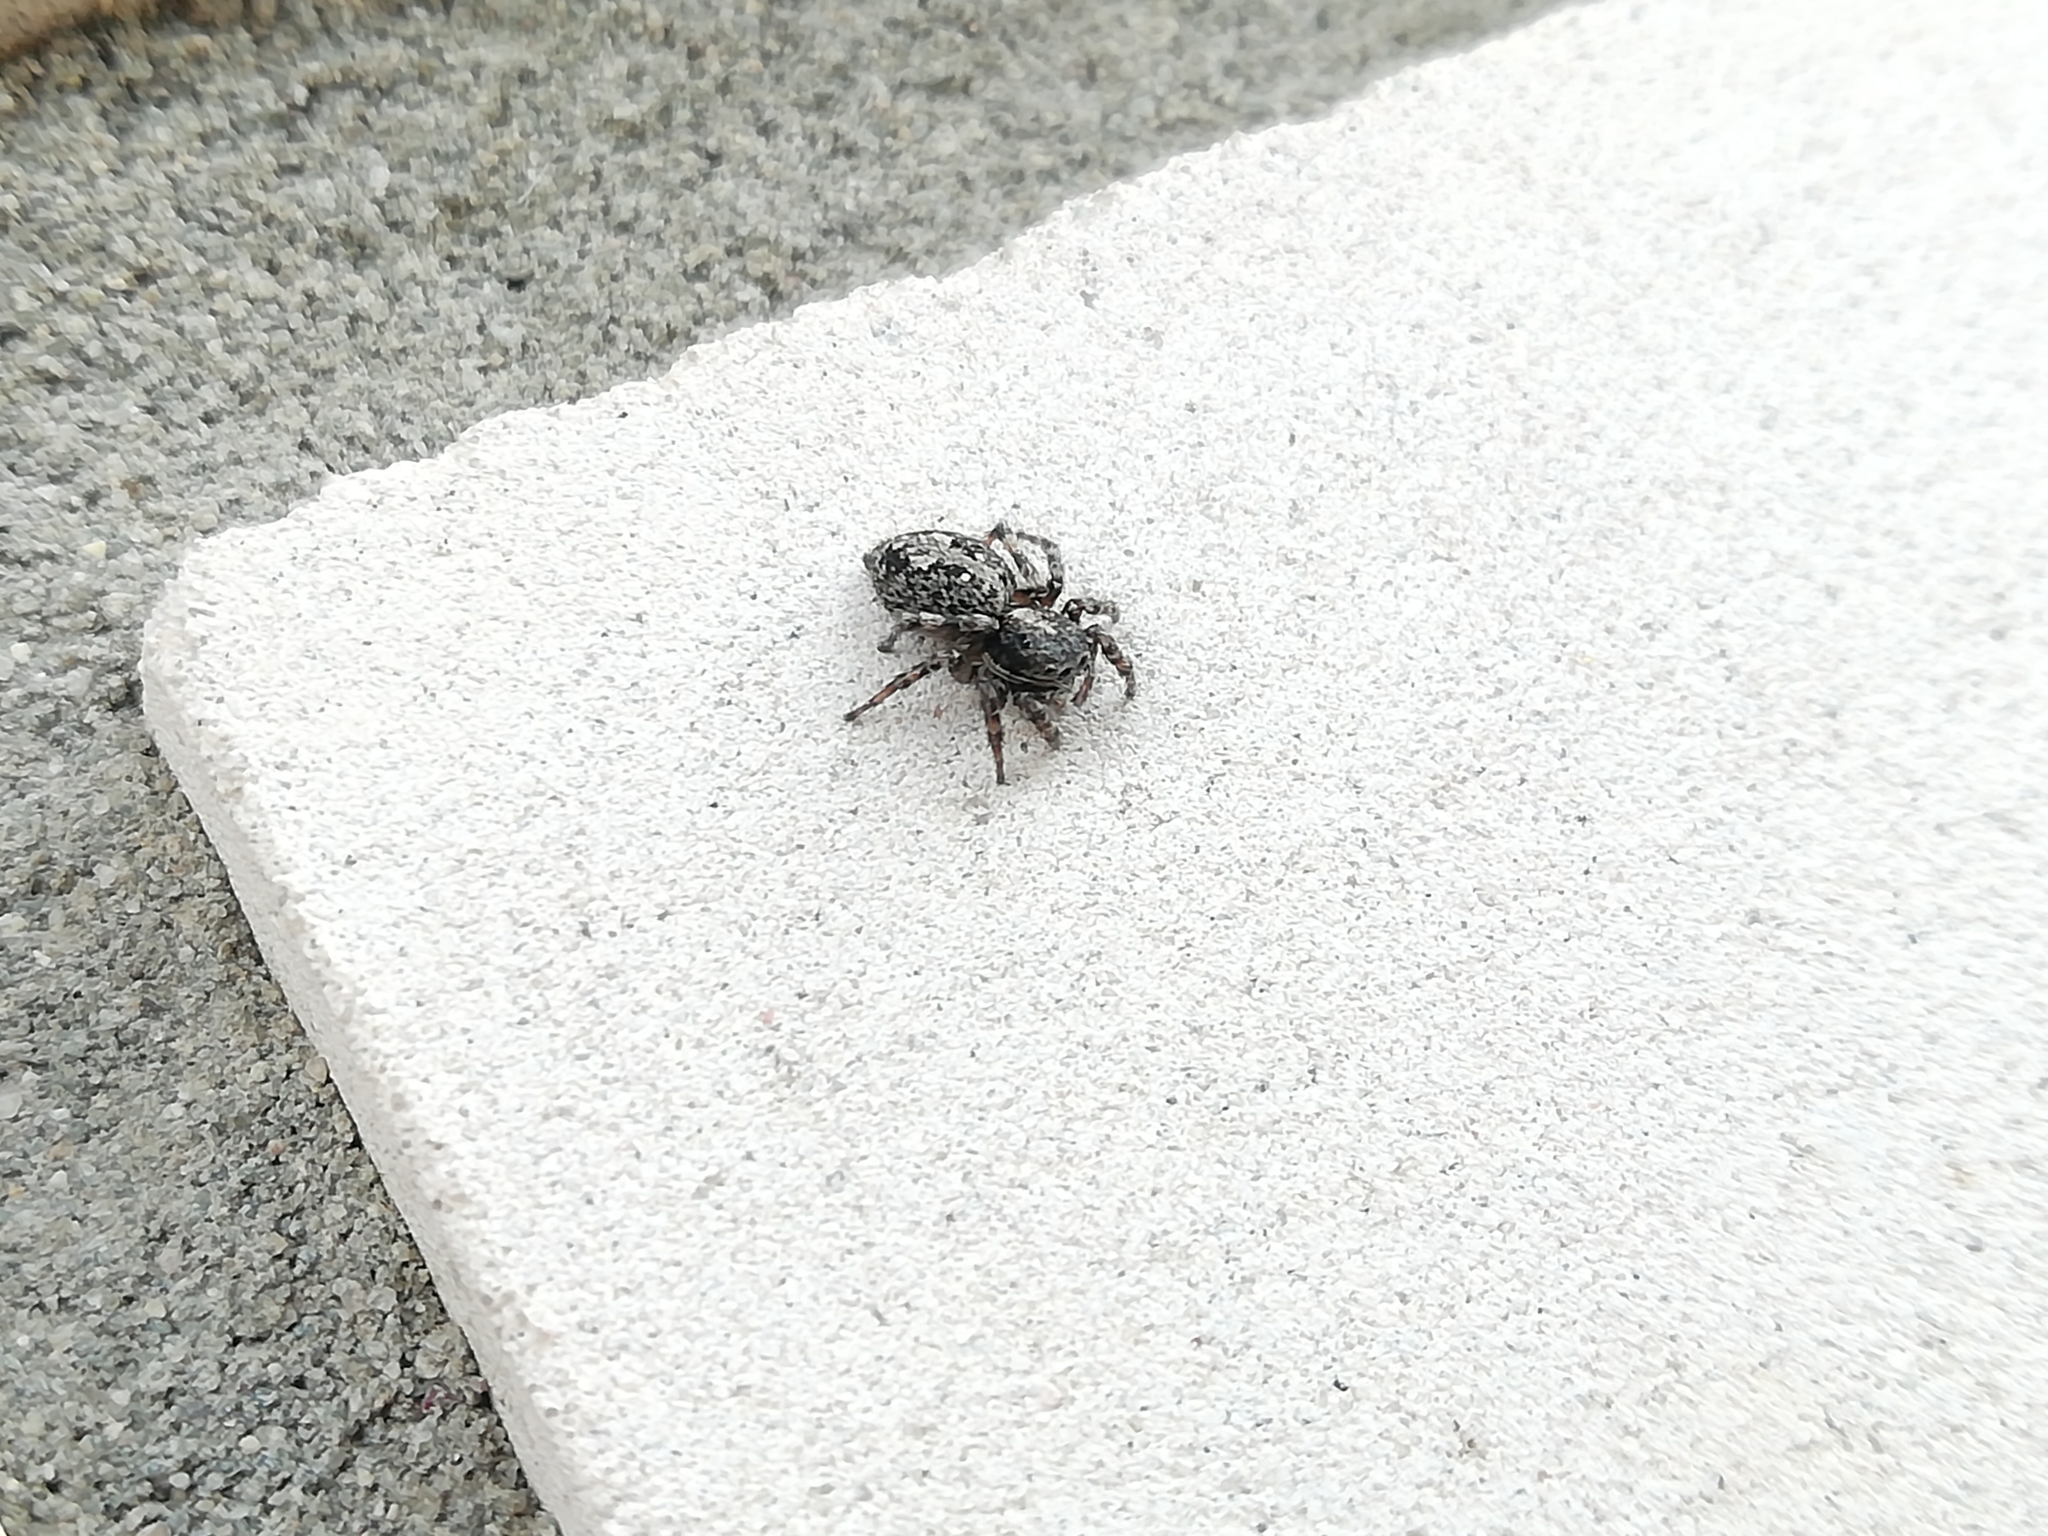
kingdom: Animalia
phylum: Arthropoda
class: Arachnida
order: Araneae
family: Salticidae
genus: Attulus
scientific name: Attulus terebratus
